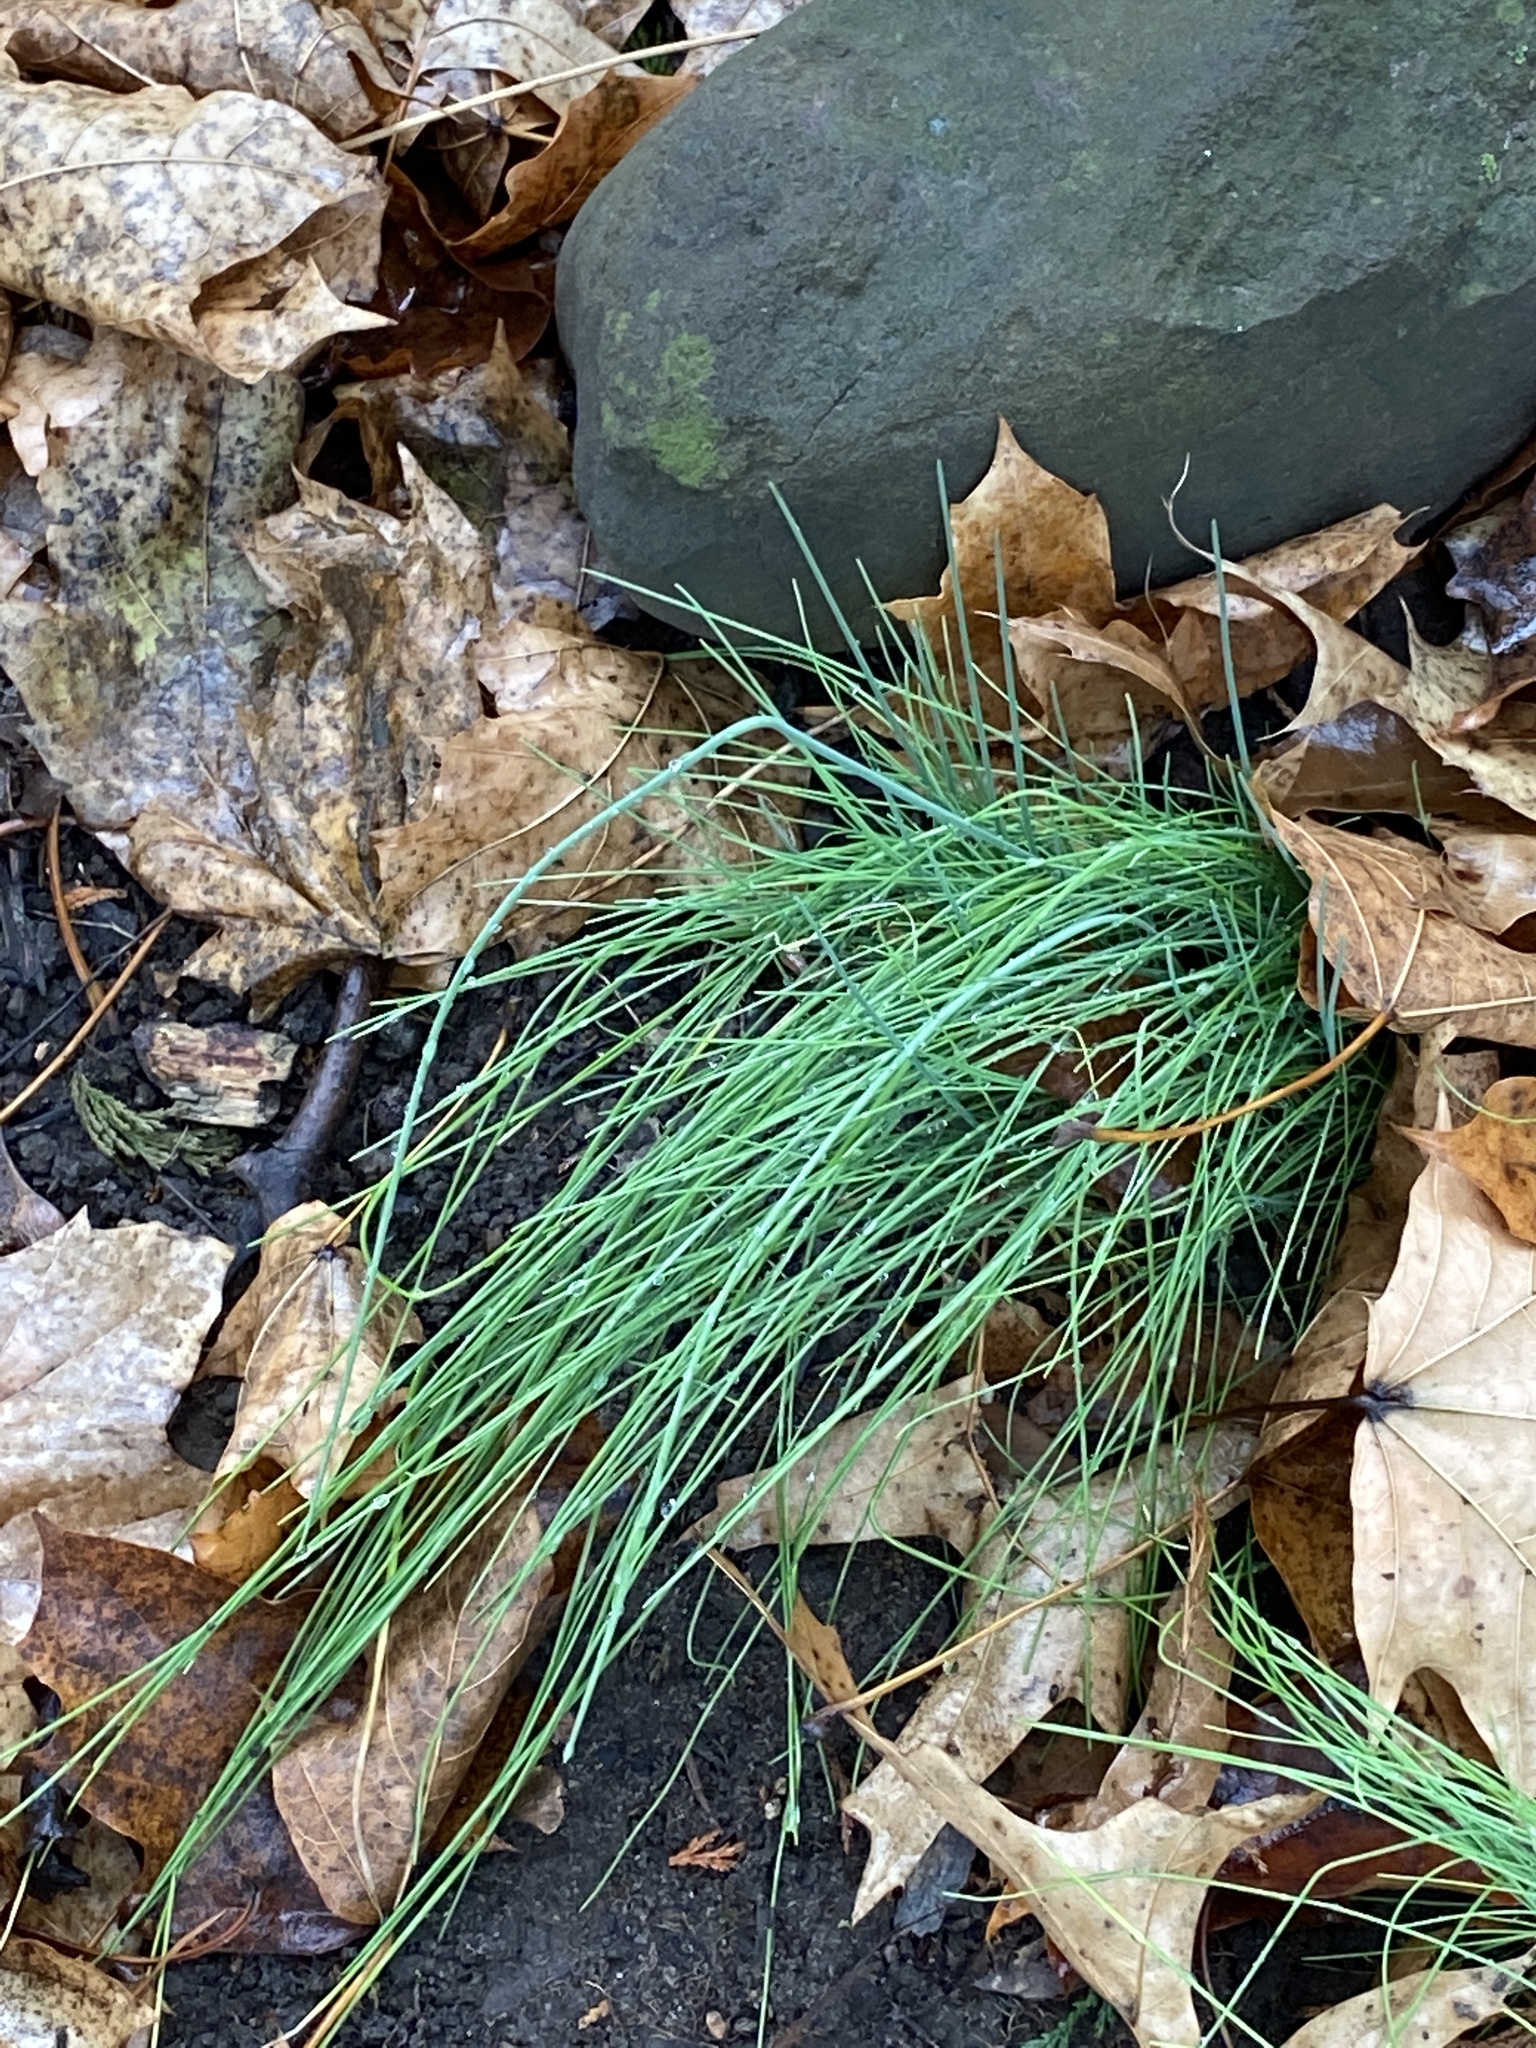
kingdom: Plantae
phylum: Tracheophyta
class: Liliopsida
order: Asparagales
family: Amaryllidaceae
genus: Allium
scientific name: Allium vineale
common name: Crow garlic
